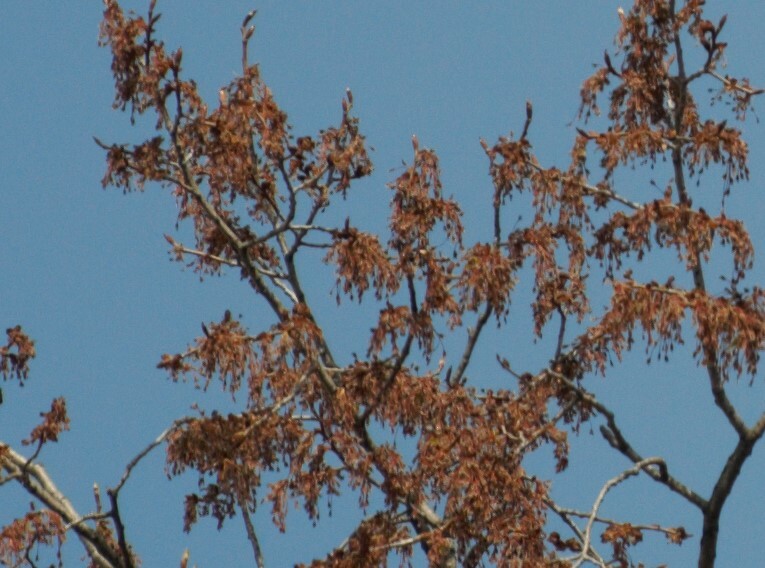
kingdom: Plantae
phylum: Tracheophyta
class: Magnoliopsida
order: Rosales
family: Ulmaceae
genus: Ulmus
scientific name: Ulmus laevis
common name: European white-elm
